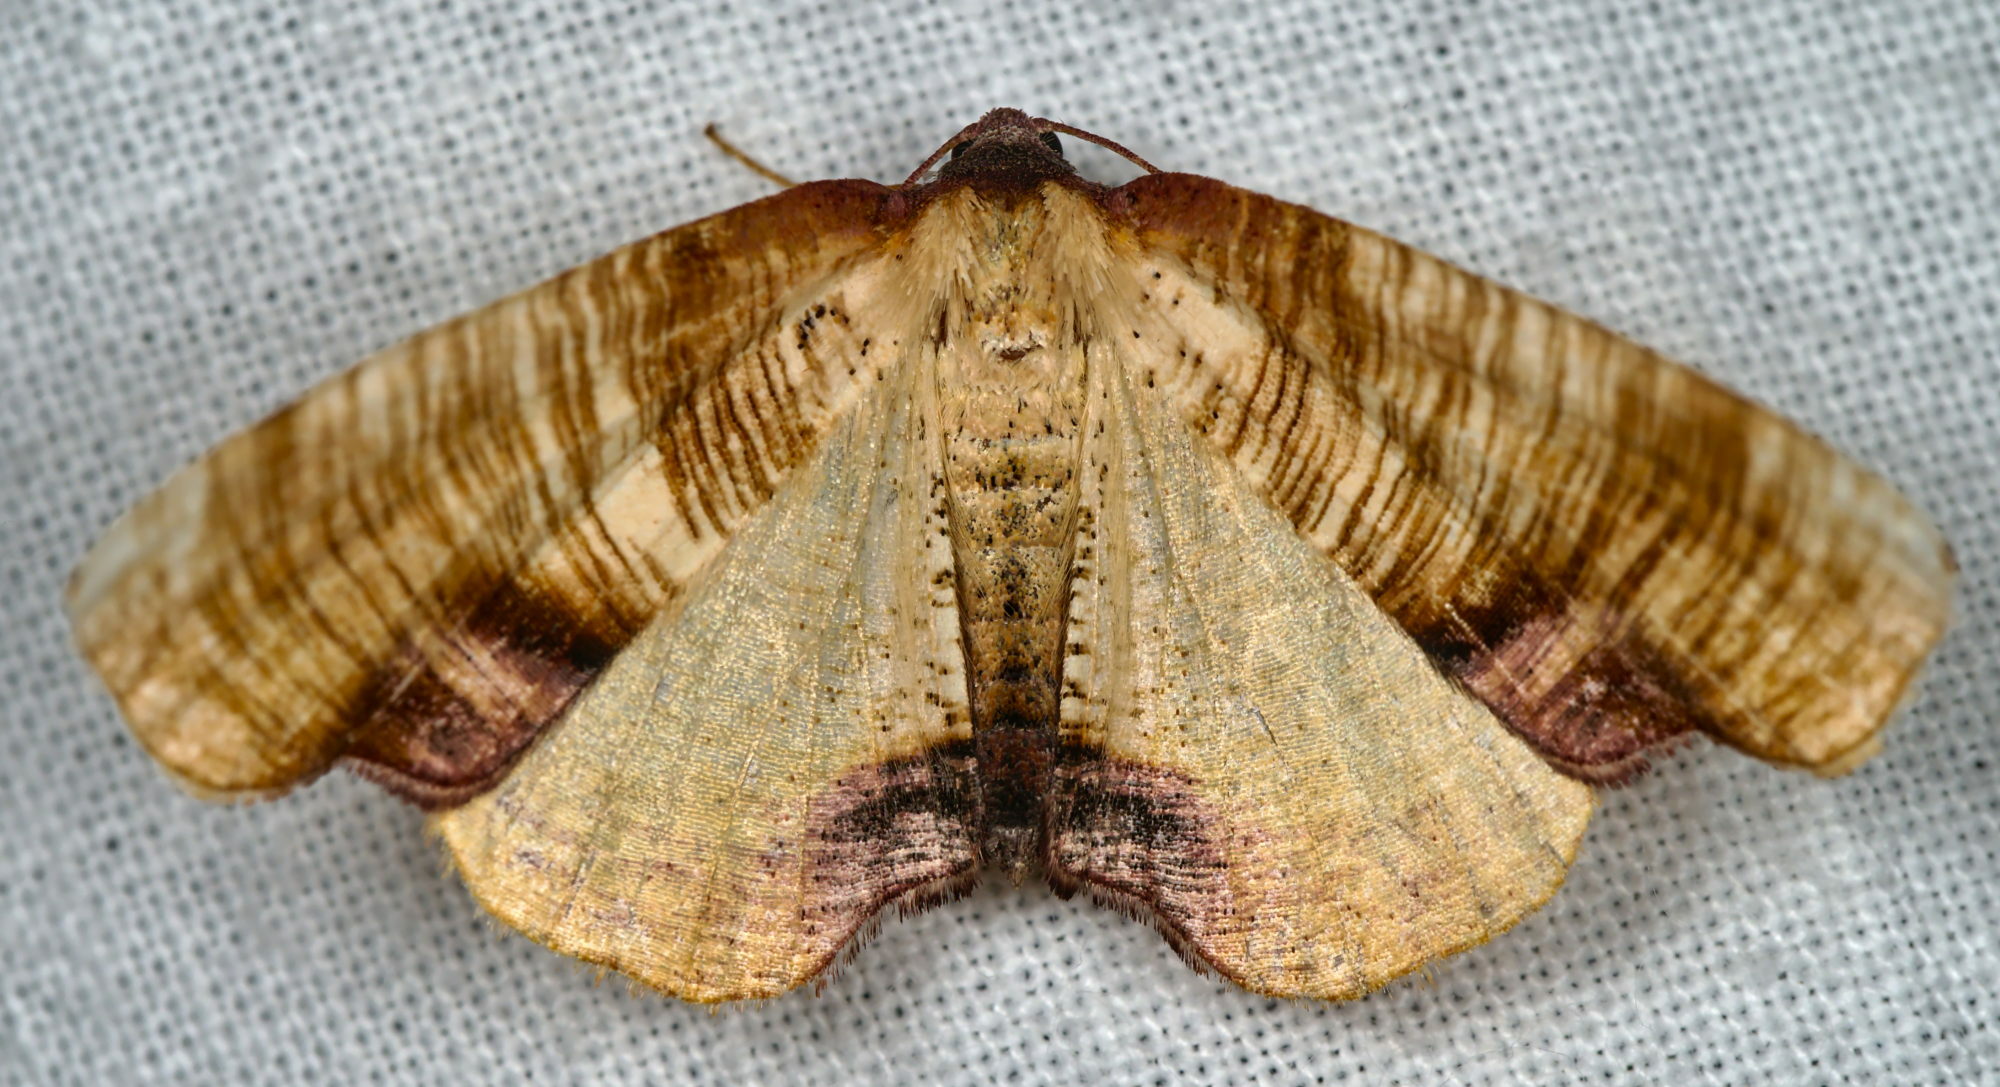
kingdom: Animalia
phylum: Arthropoda
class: Insecta
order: Lepidoptera
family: Geometridae
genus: Plagodis
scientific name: Plagodis dolabraria
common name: Scorched wing
